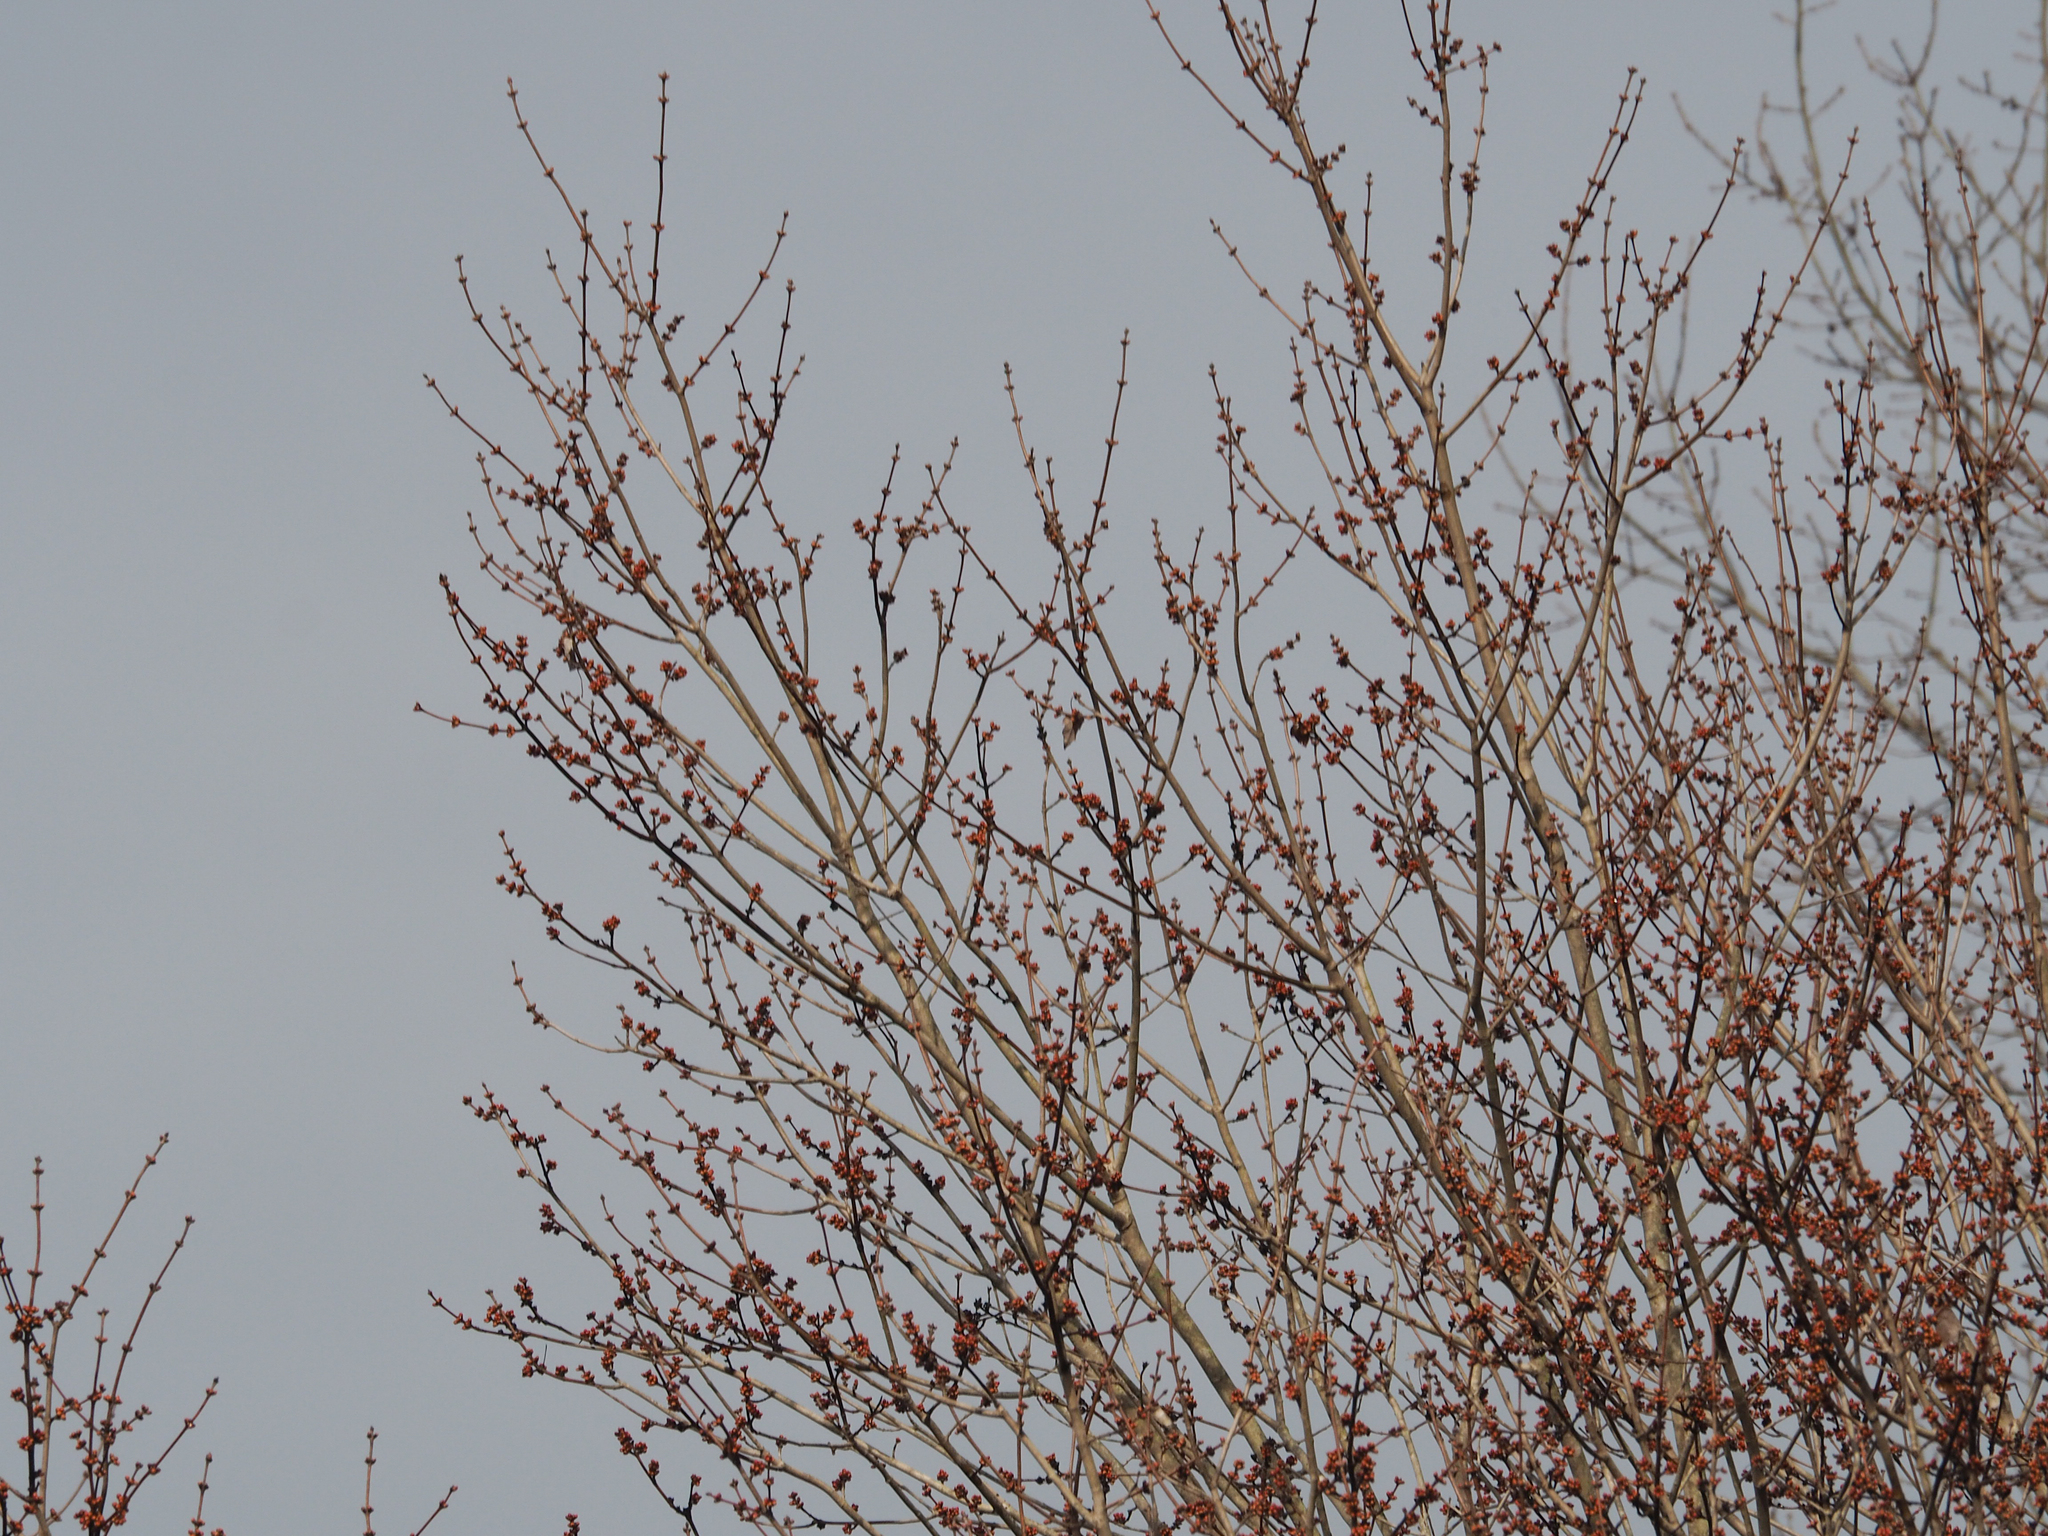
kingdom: Plantae
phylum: Tracheophyta
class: Magnoliopsida
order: Sapindales
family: Sapindaceae
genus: Acer
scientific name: Acer rubrum
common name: Red maple
